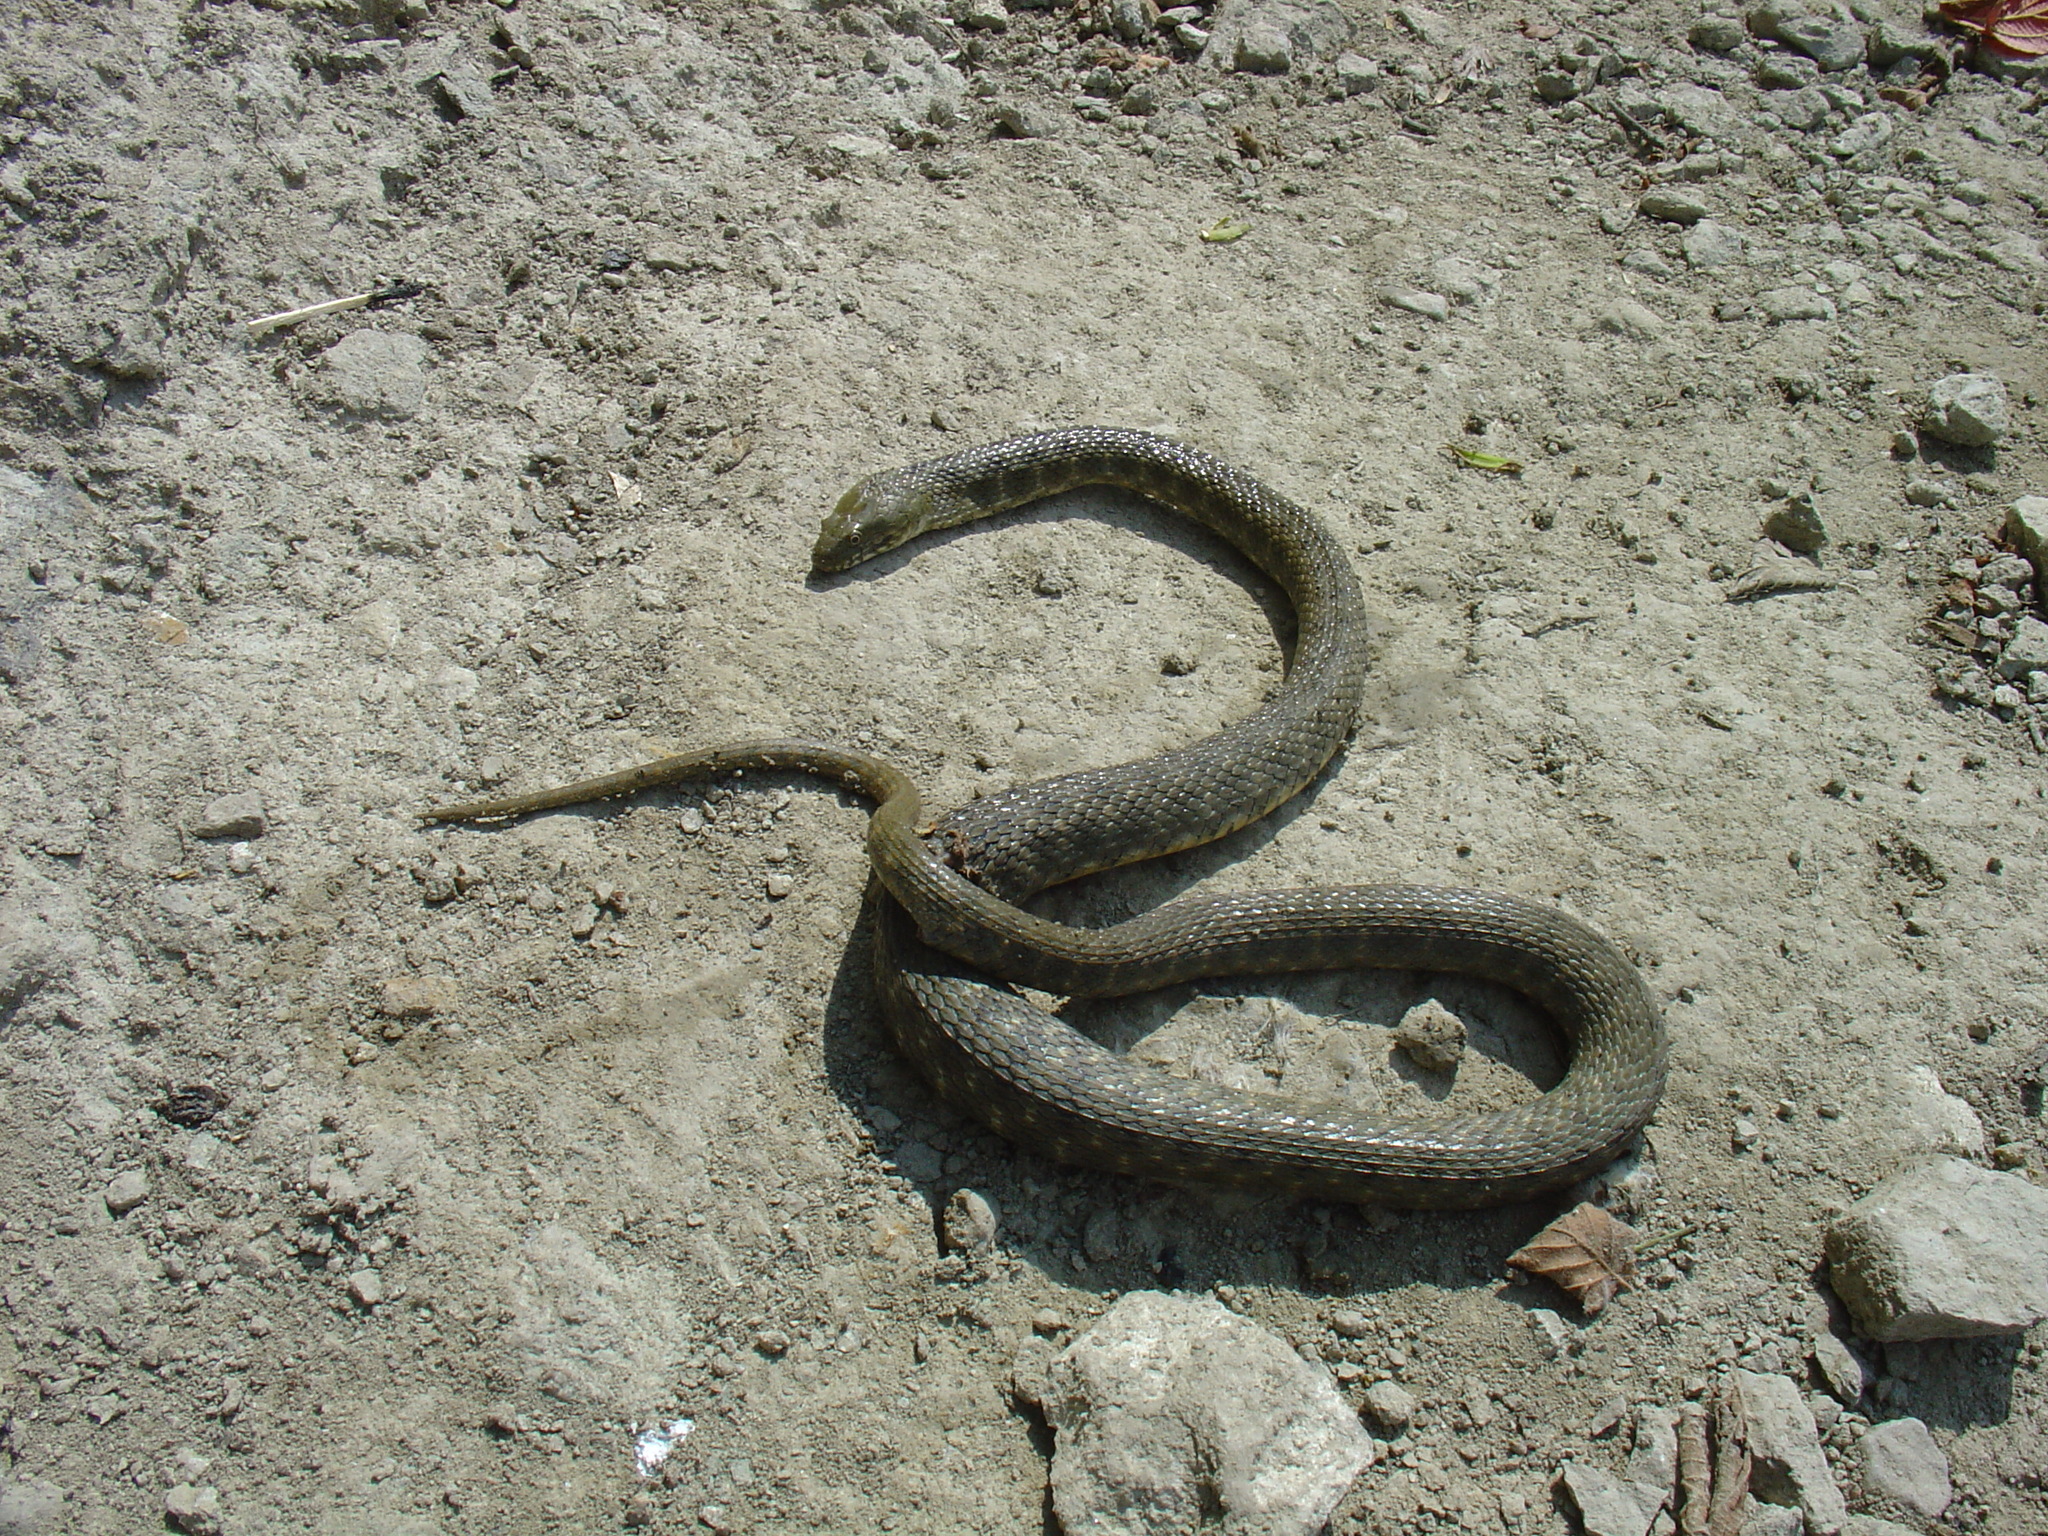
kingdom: Animalia
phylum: Chordata
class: Squamata
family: Colubridae
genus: Natrix
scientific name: Natrix tessellata
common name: Dice snake
